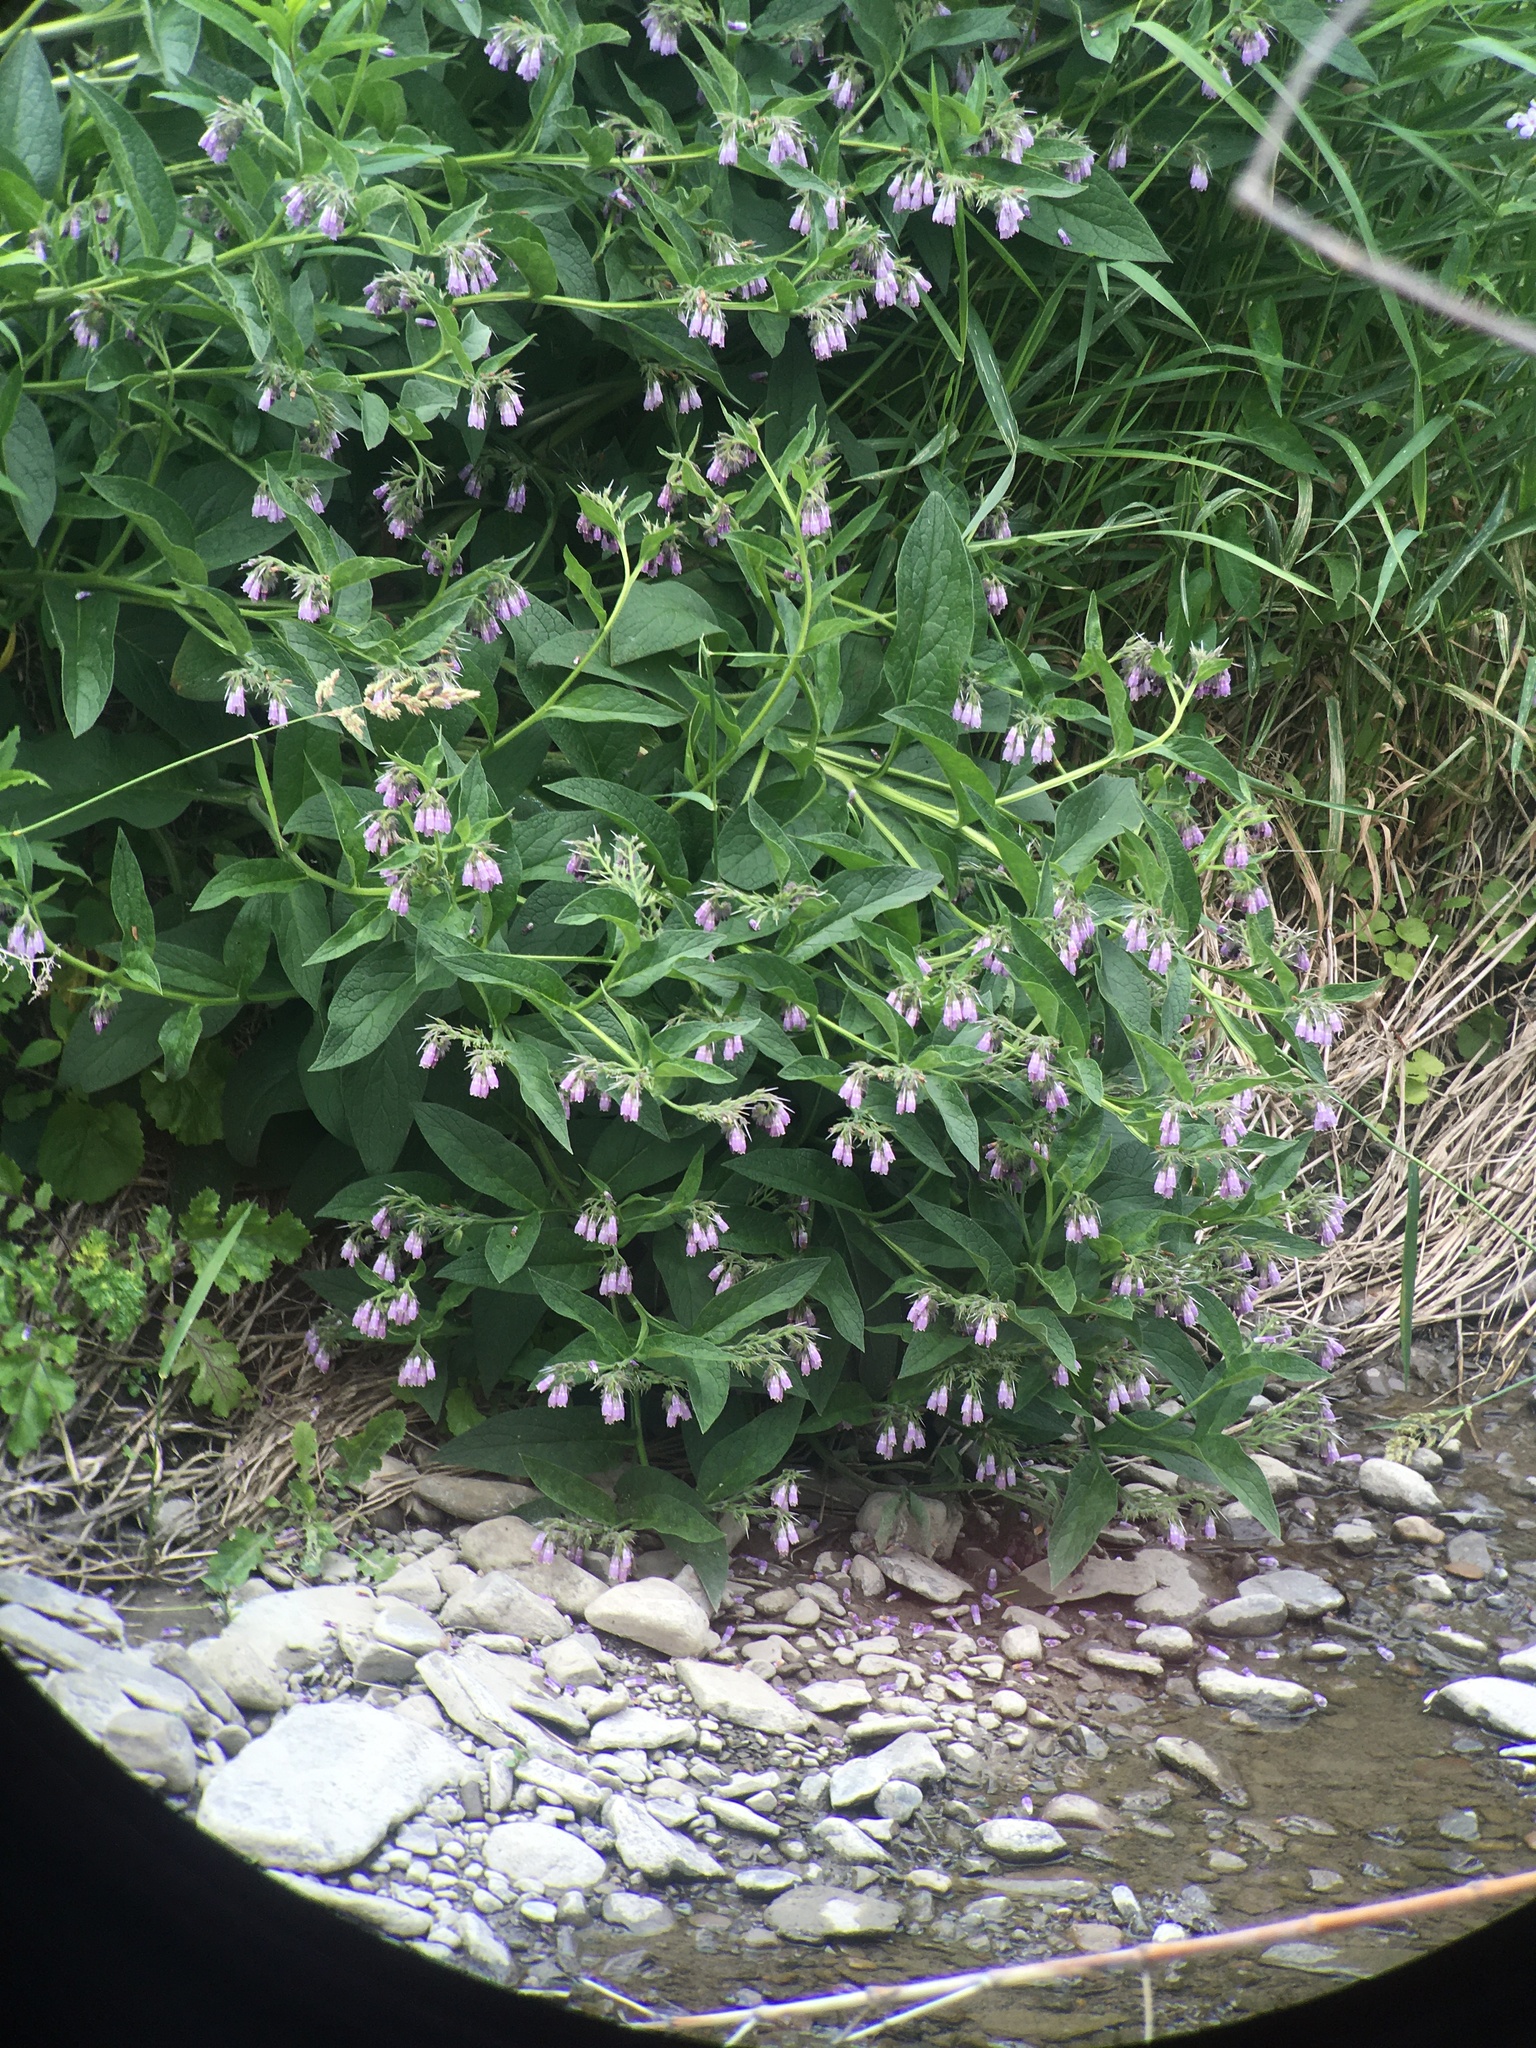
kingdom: Plantae
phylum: Tracheophyta
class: Magnoliopsida
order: Boraginales
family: Boraginaceae
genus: Symphytum
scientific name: Symphytum officinale
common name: Common comfrey
